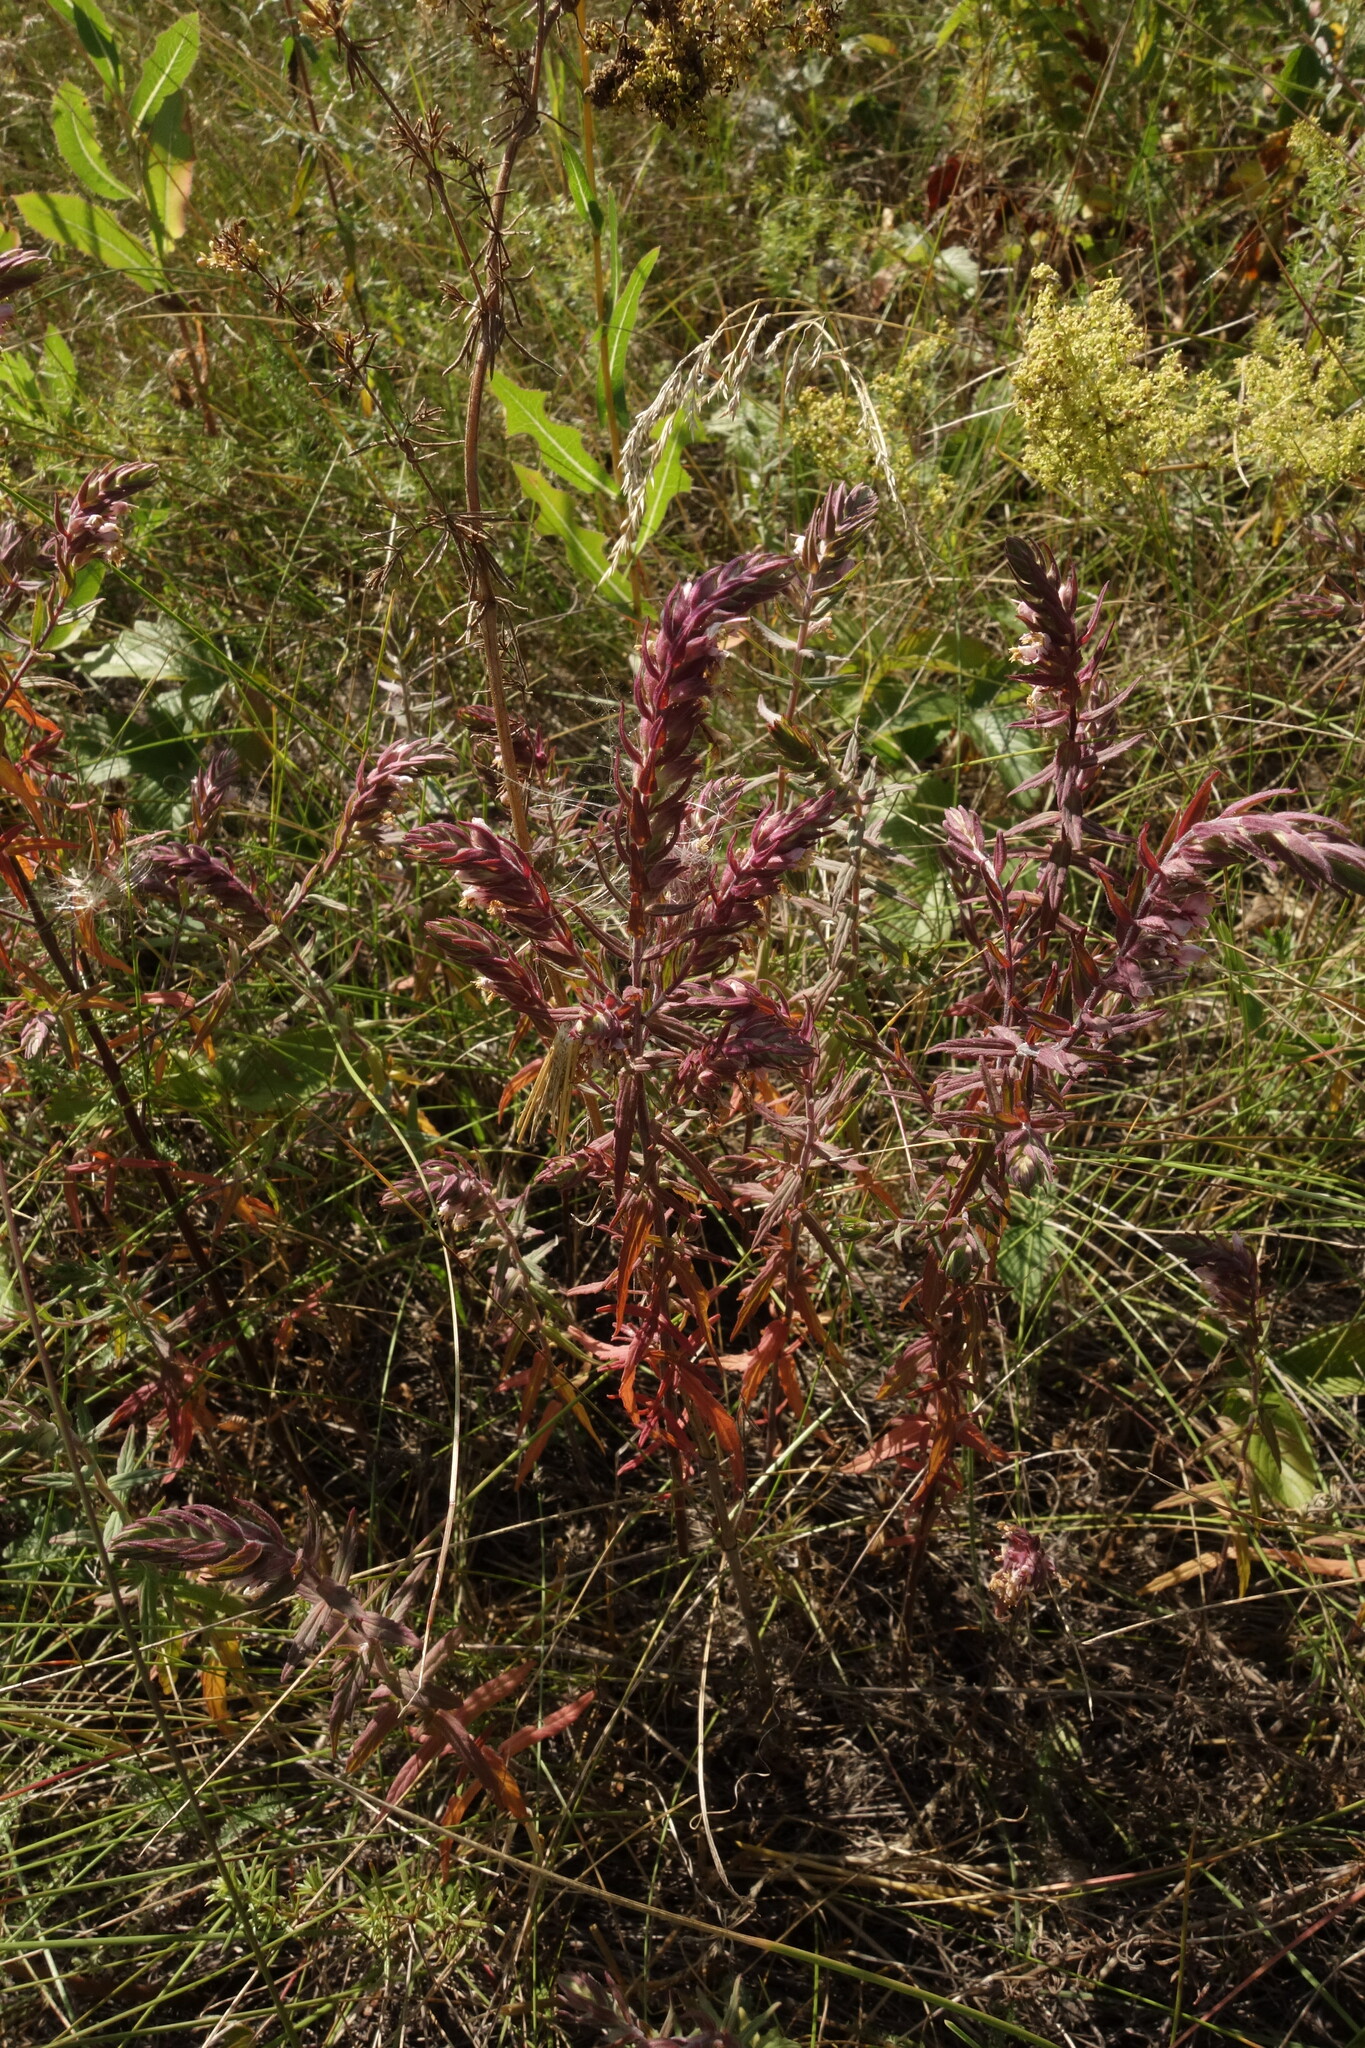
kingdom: Plantae
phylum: Tracheophyta
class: Magnoliopsida
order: Lamiales
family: Orobanchaceae
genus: Odontites
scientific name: Odontites vulgaris
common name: Broomrape
